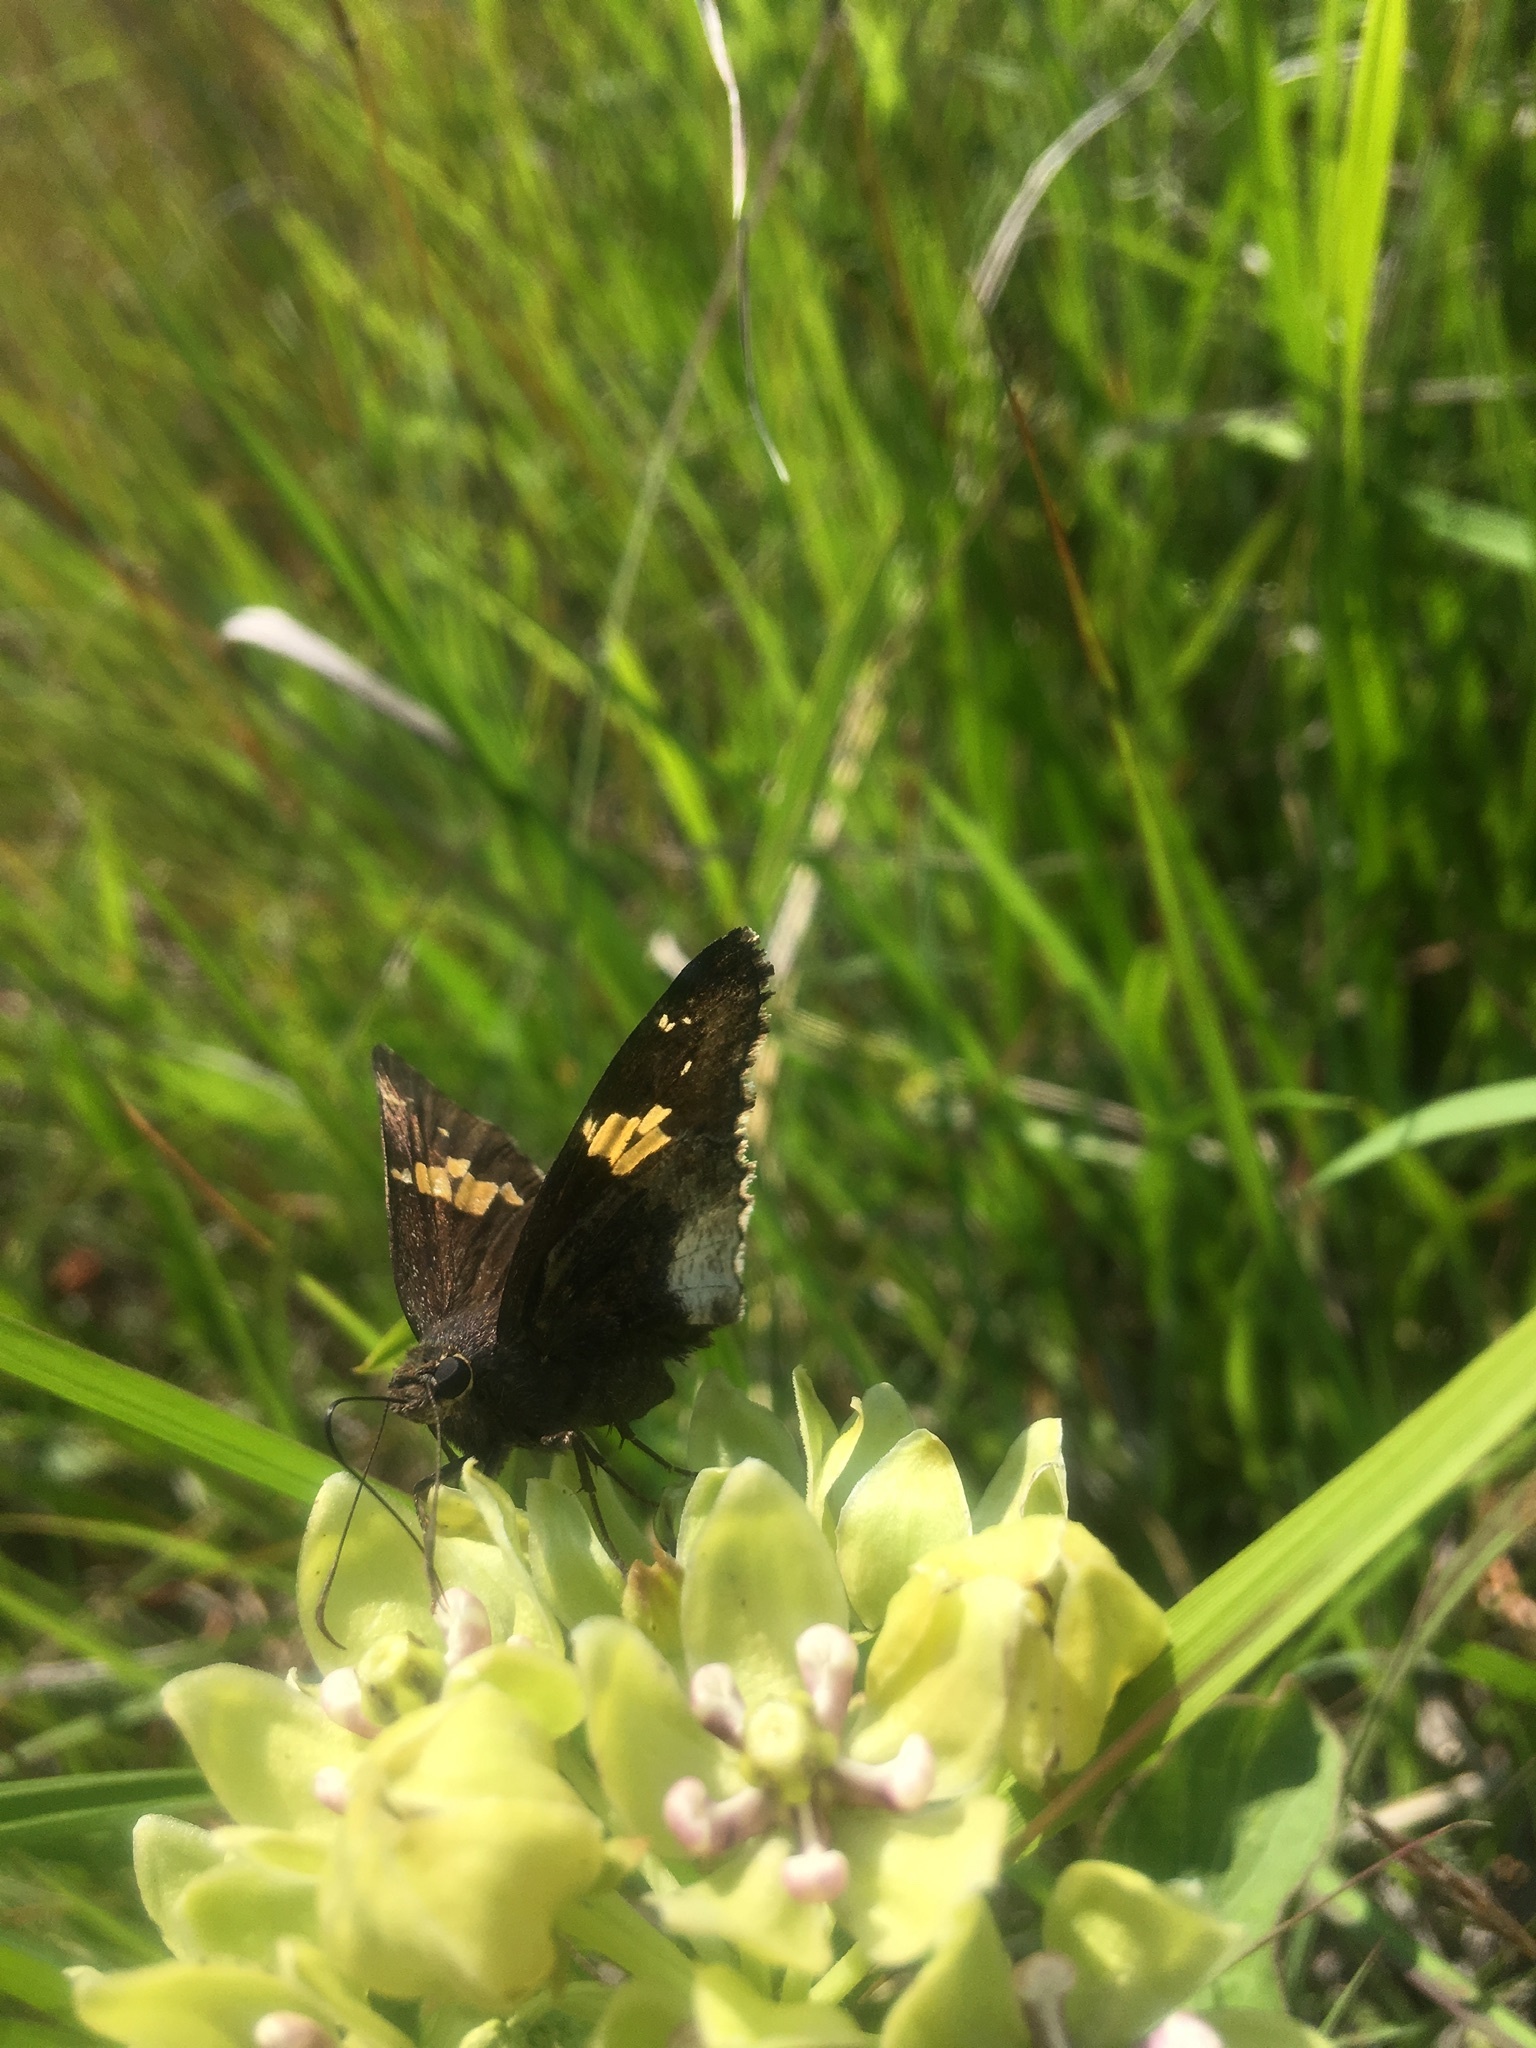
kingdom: Animalia
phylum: Arthropoda
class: Insecta
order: Lepidoptera
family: Hesperiidae
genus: Thorybes
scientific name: Thorybes lyciades
